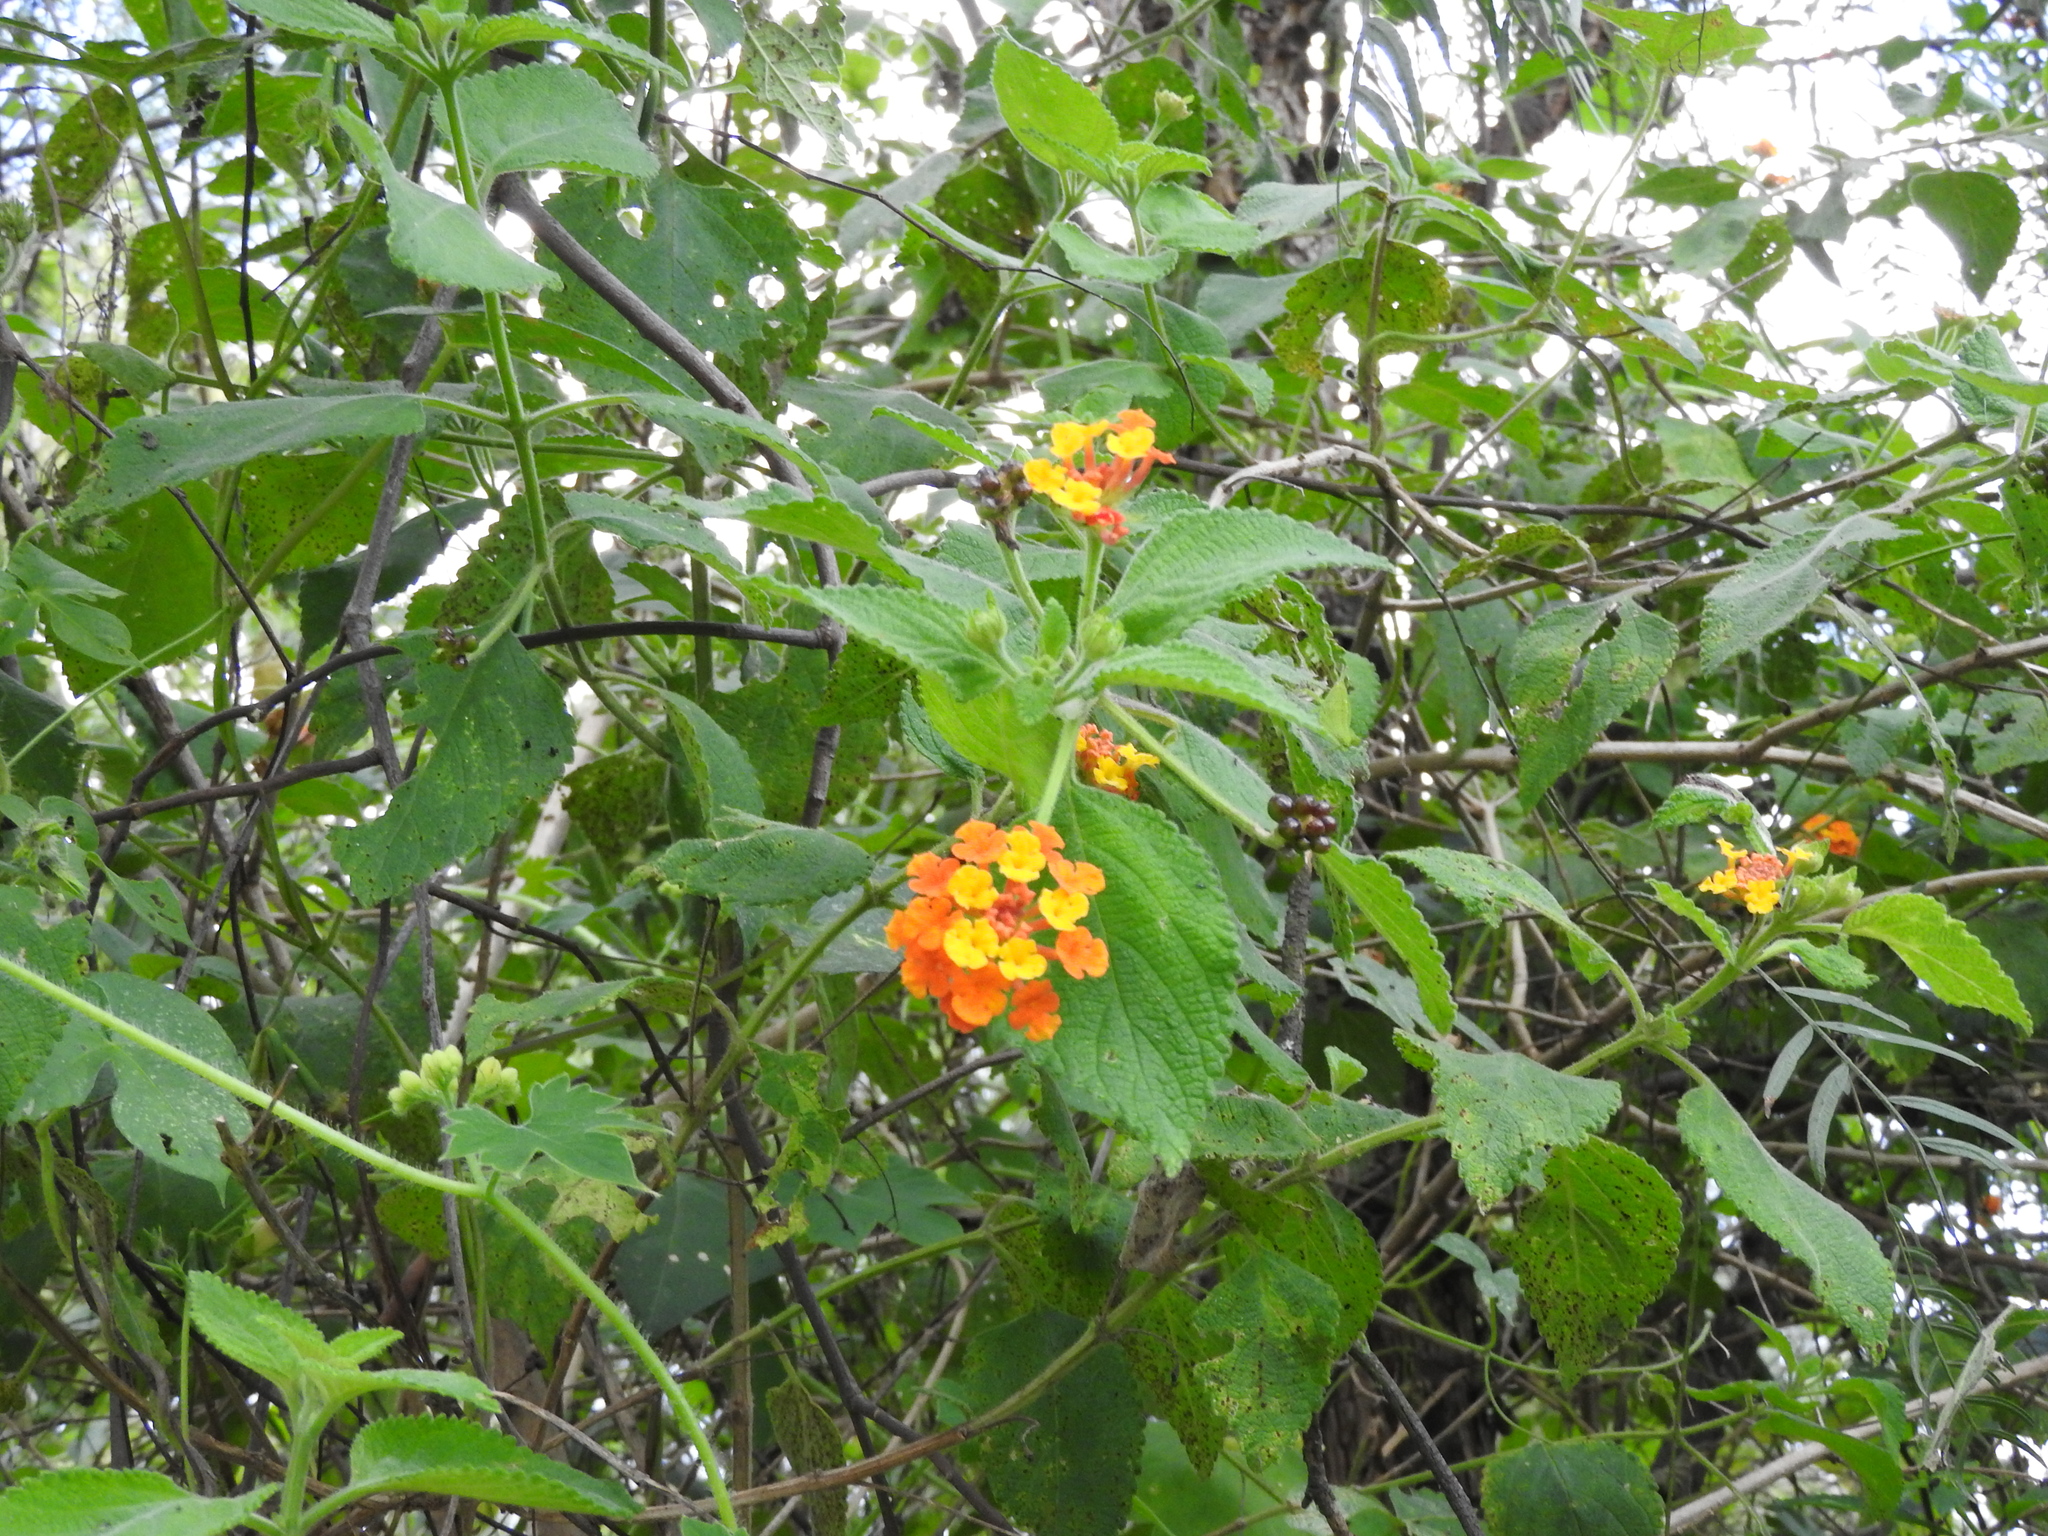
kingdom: Plantae
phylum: Tracheophyta
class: Magnoliopsida
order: Lamiales
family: Verbenaceae
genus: Lantana
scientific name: Lantana camara
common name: Lantana
